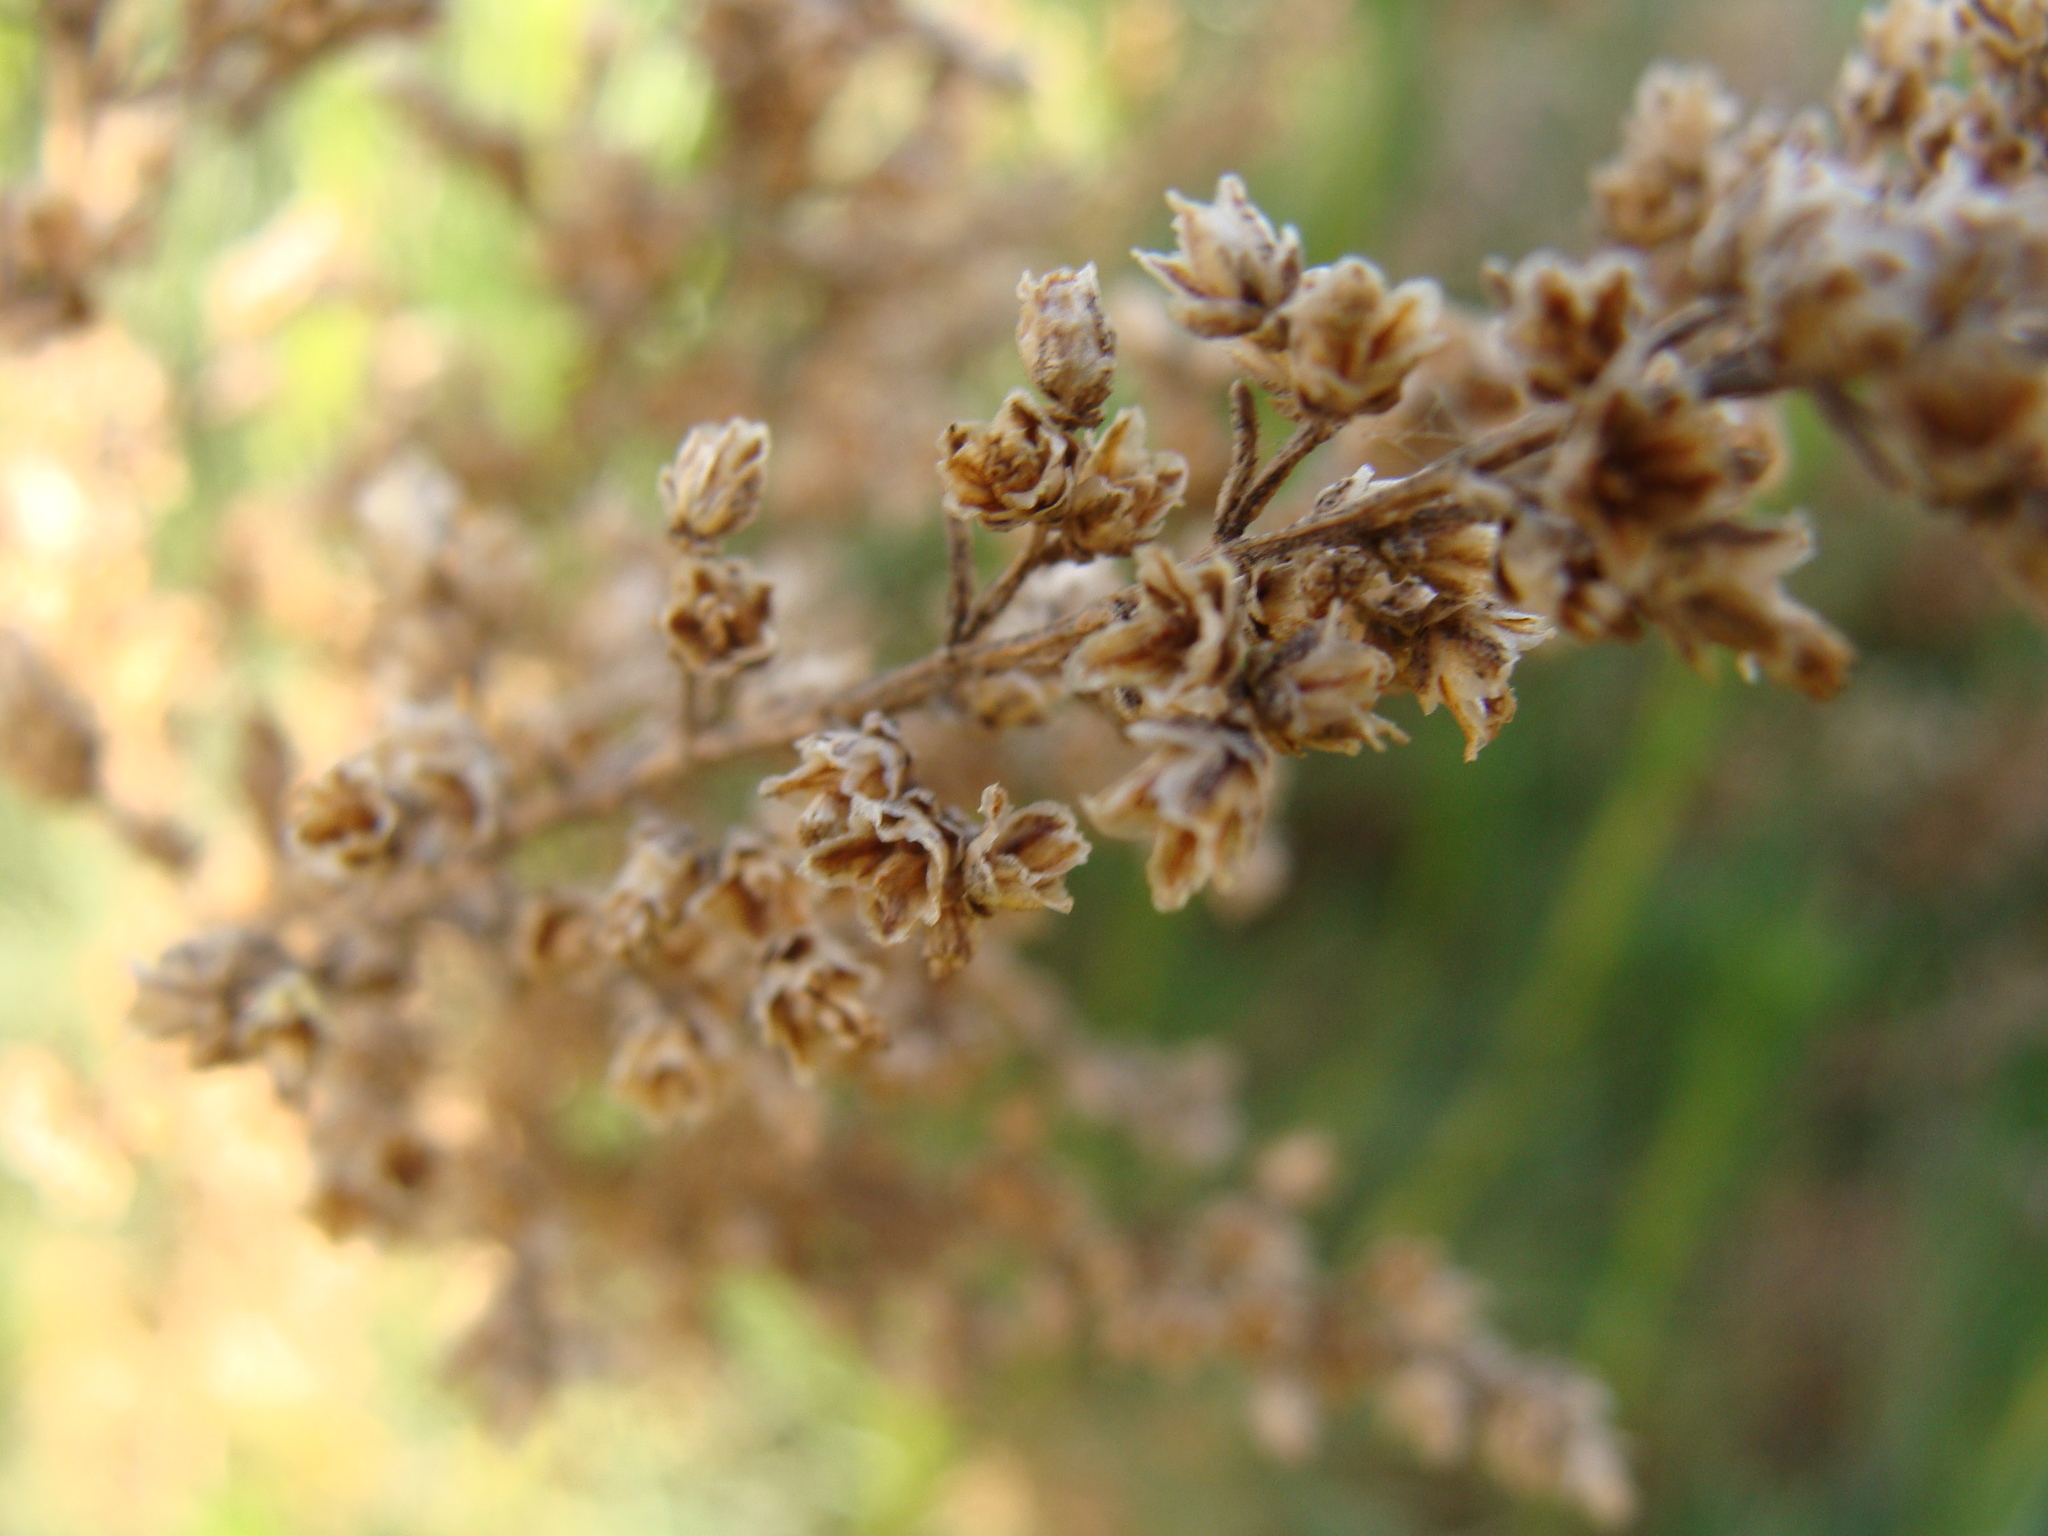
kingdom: Plantae
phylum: Tracheophyta
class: Magnoliopsida
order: Asterales
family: Asteraceae
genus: Artemisia
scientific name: Artemisia atlantica
